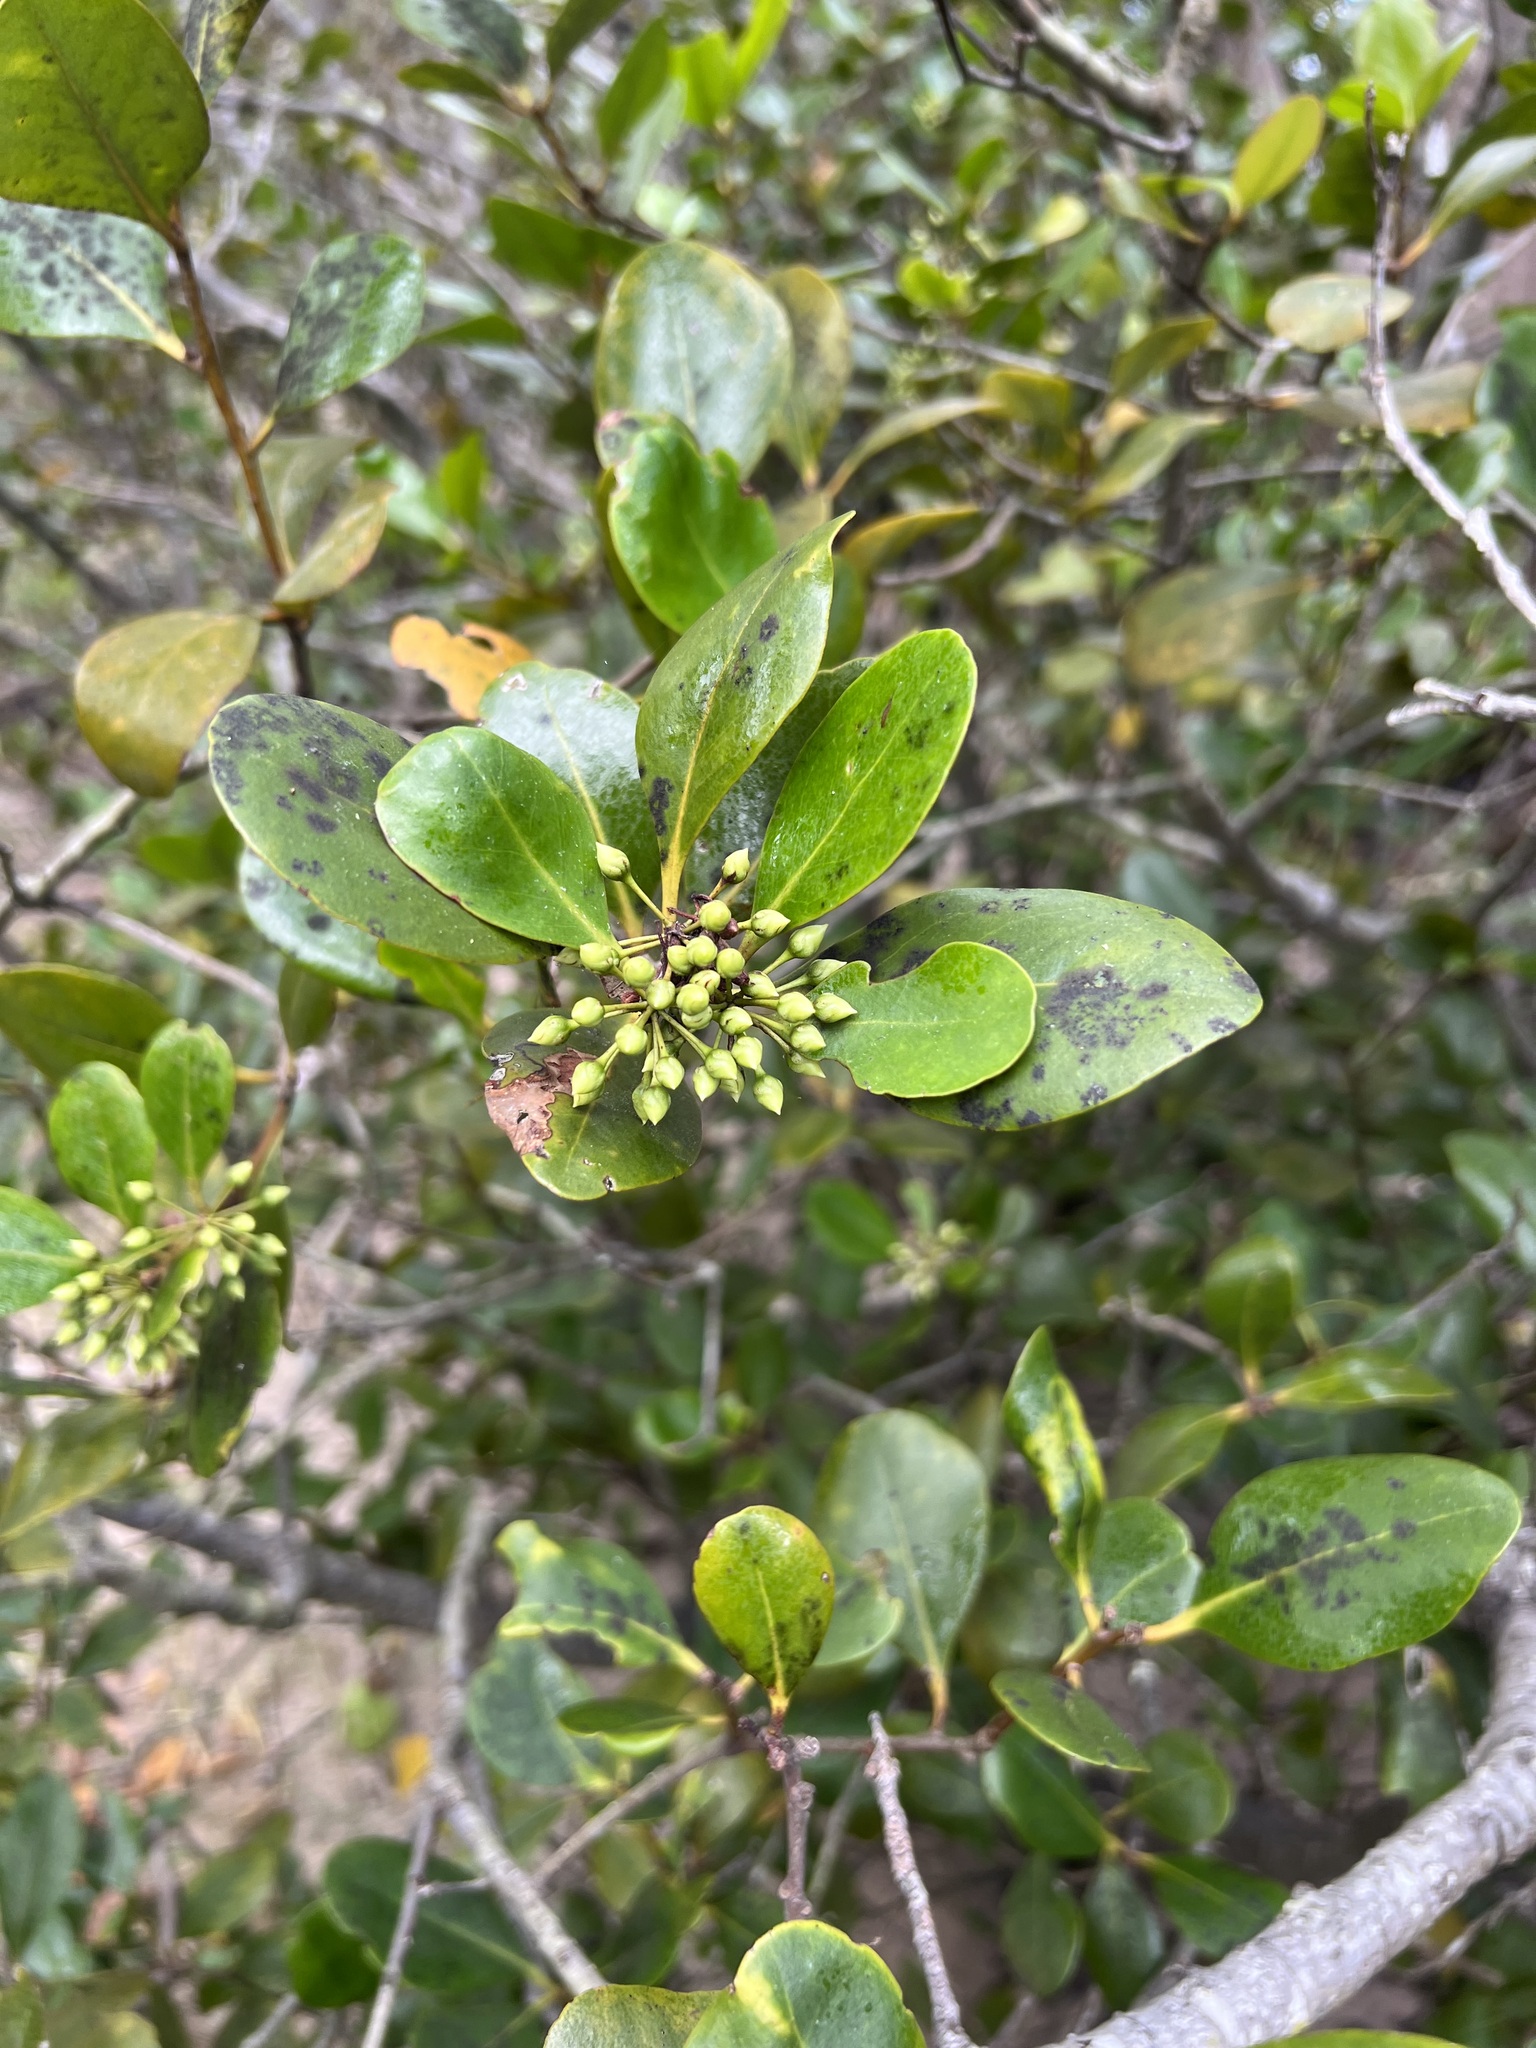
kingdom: Plantae
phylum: Tracheophyta
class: Magnoliopsida
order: Ericales
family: Primulaceae
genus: Aegiceras
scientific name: Aegiceras corniculatum
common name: River mangrove
